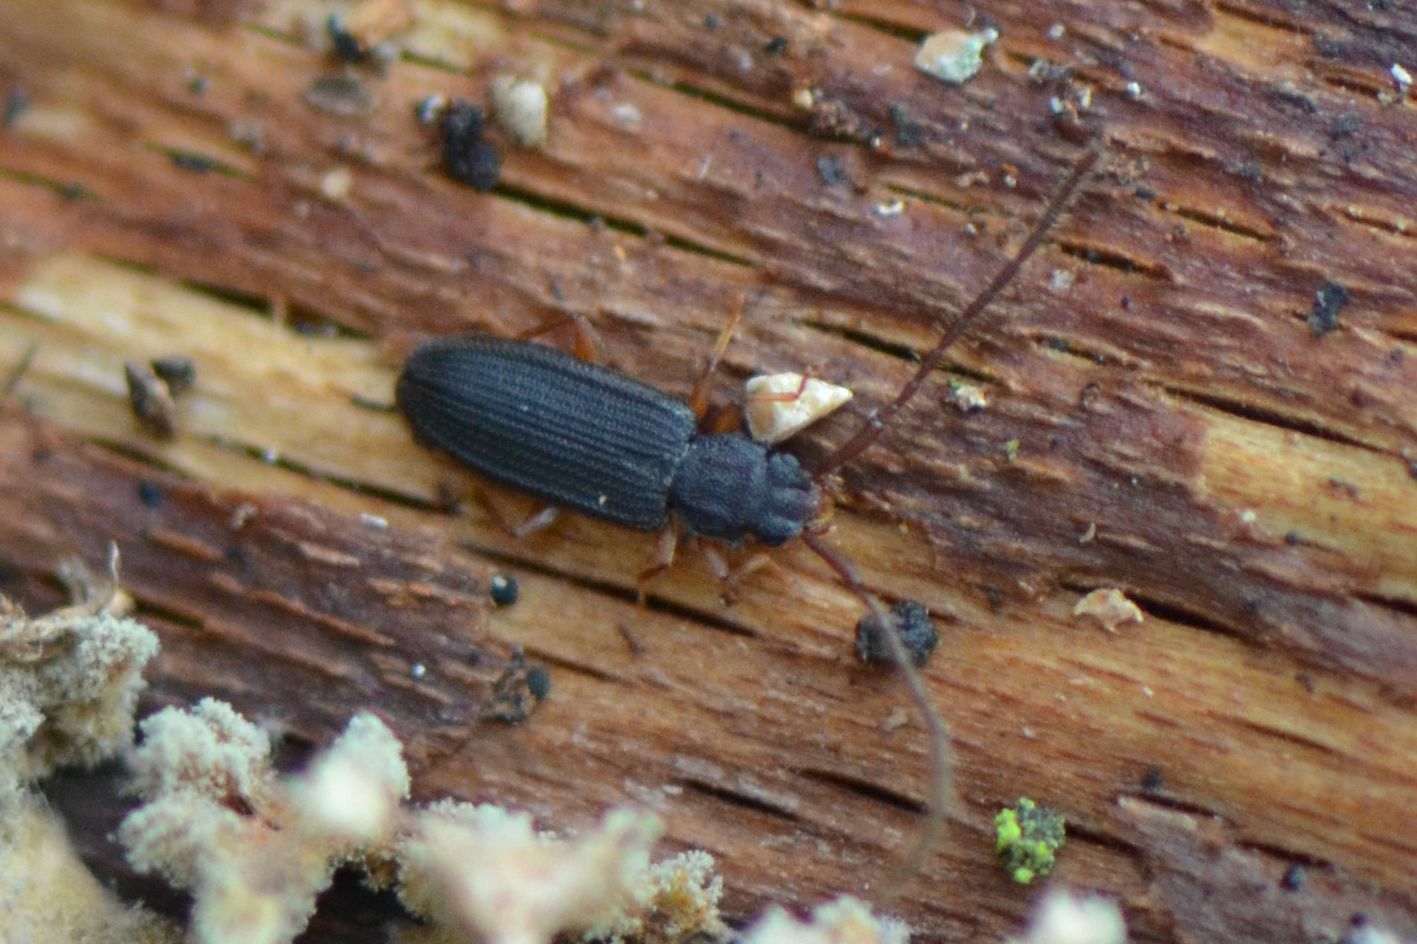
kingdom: Animalia
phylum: Arthropoda
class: Insecta
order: Coleoptera
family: Silvanidae
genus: Uleiota
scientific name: Uleiota planatus
